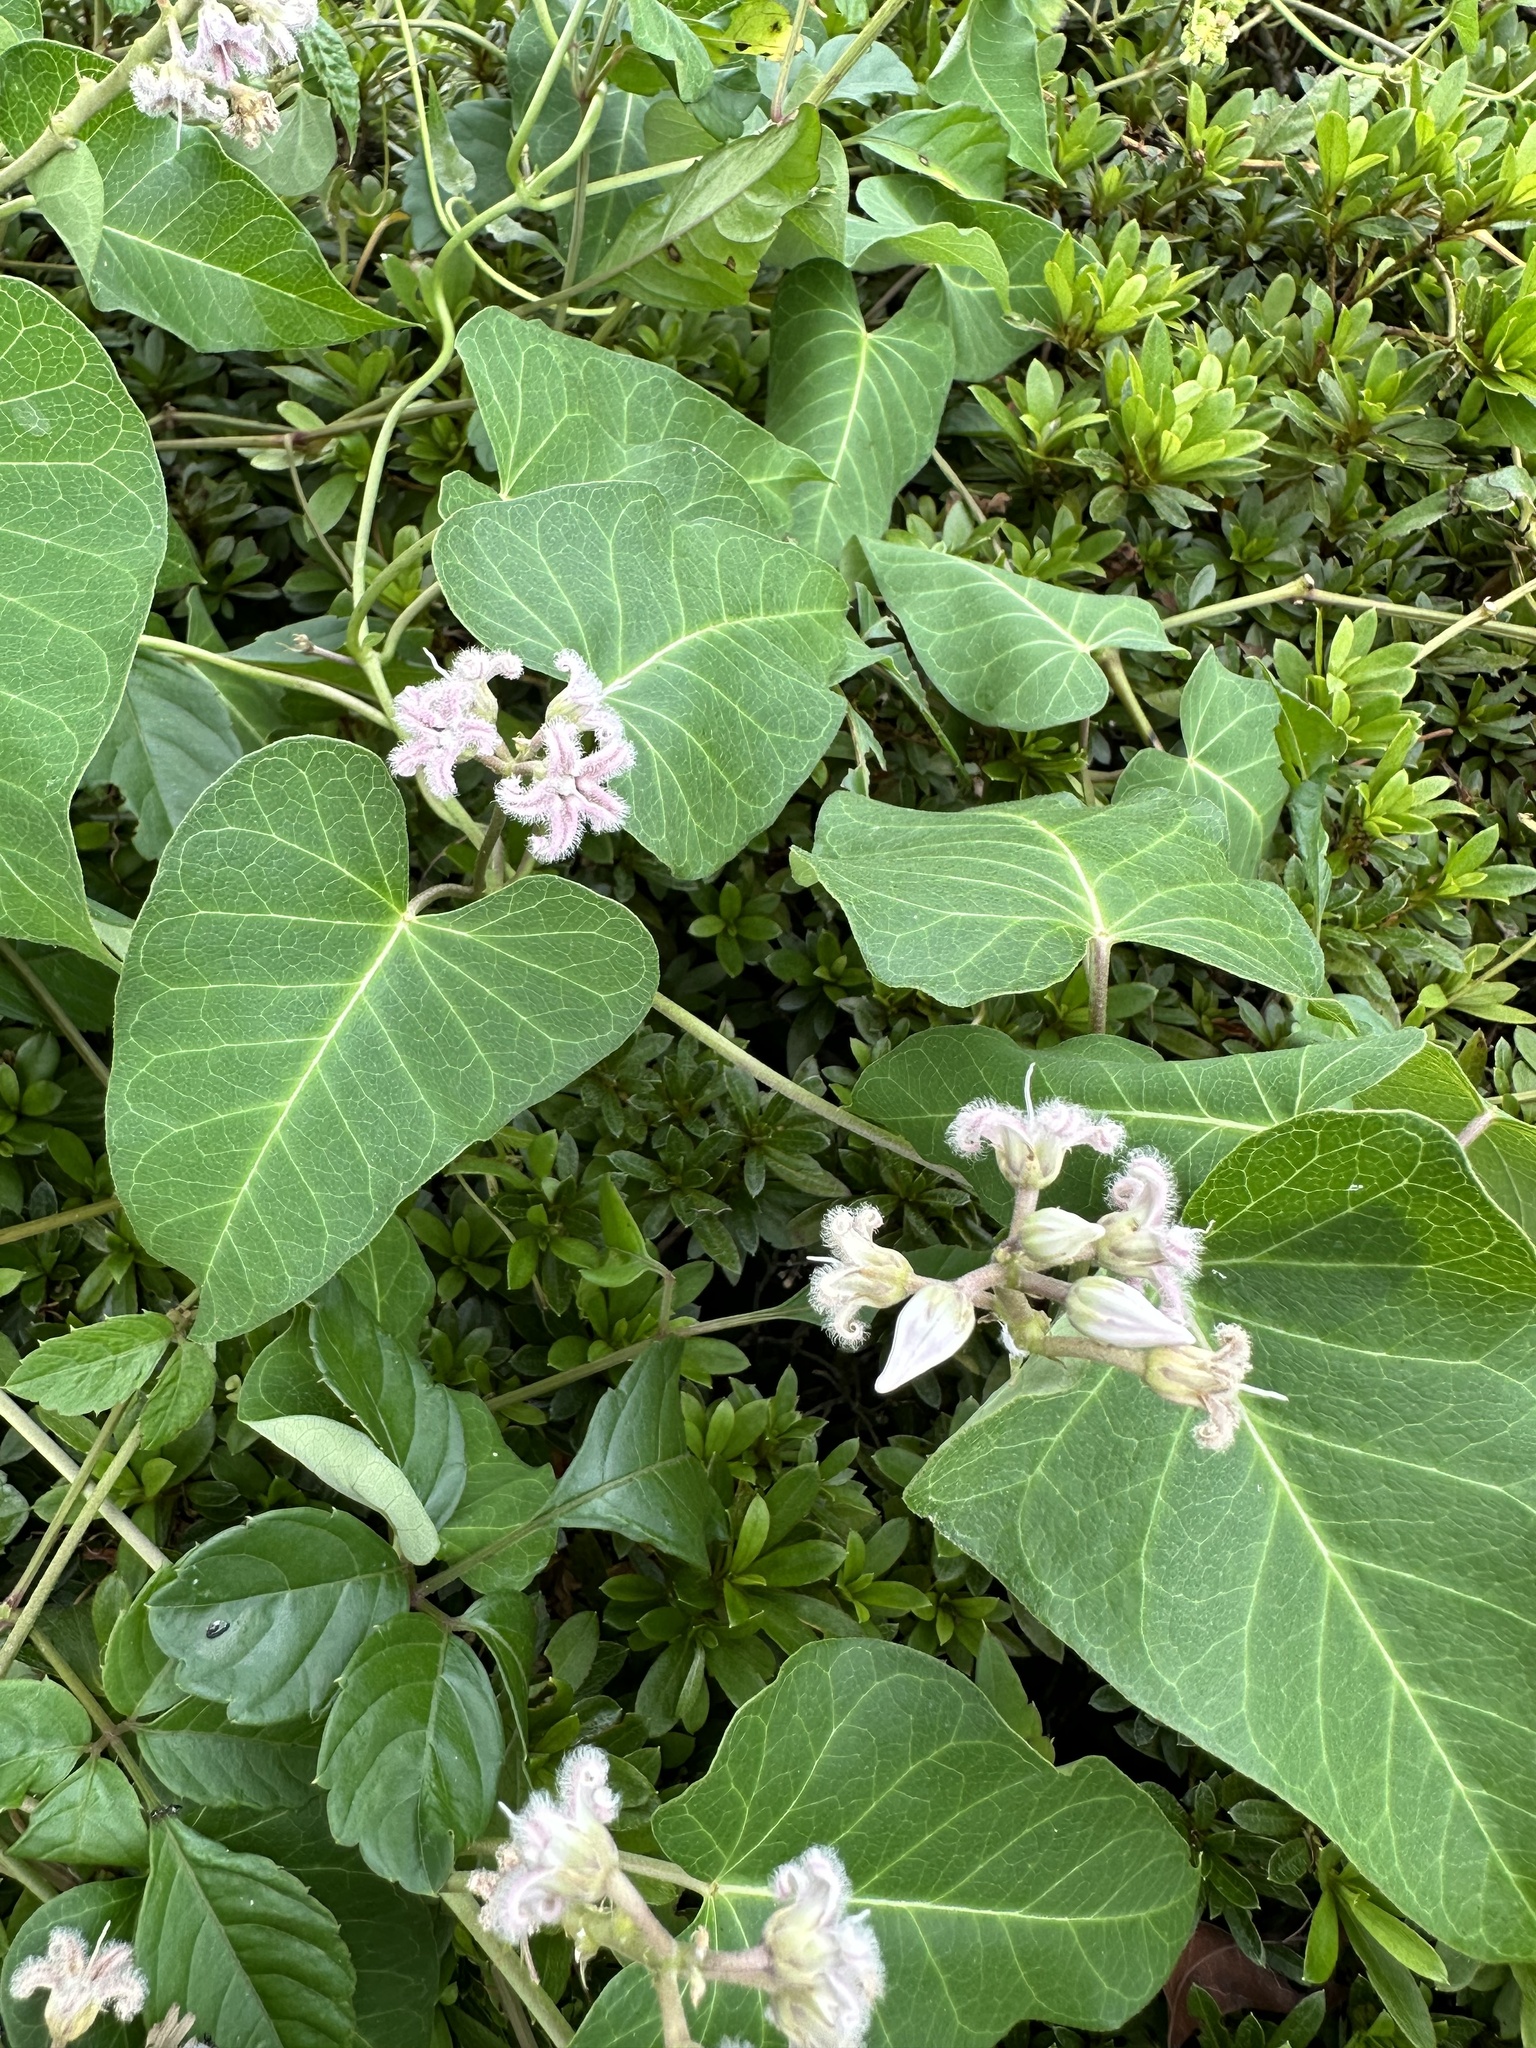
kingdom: Plantae
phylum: Tracheophyta
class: Magnoliopsida
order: Gentianales
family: Apocynaceae
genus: Cynanchum
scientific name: Cynanchum rostellatum
